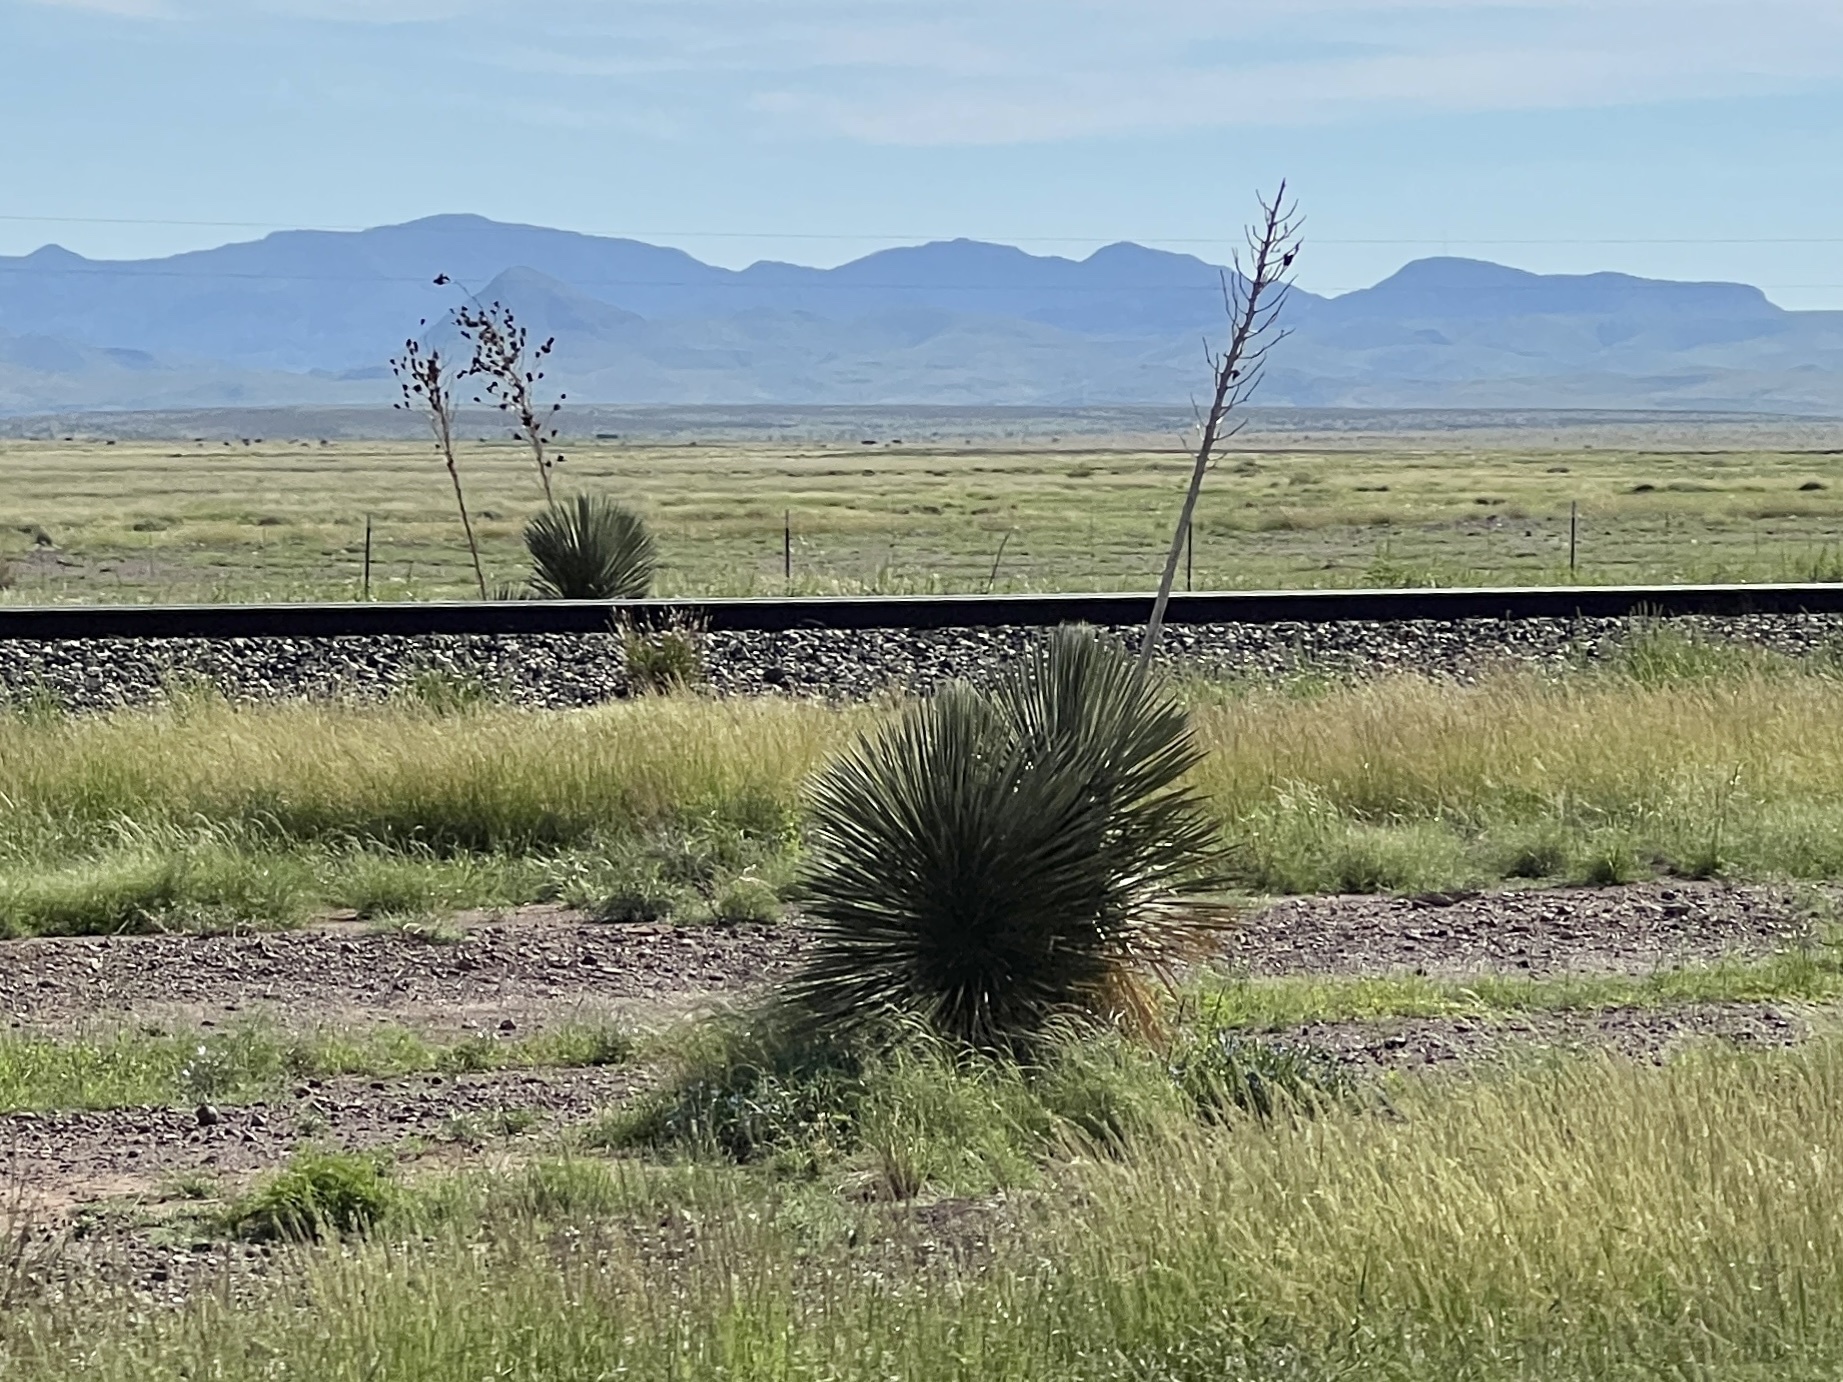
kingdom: Plantae
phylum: Tracheophyta
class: Liliopsida
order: Asparagales
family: Asparagaceae
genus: Yucca
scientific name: Yucca elata
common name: Palmella
